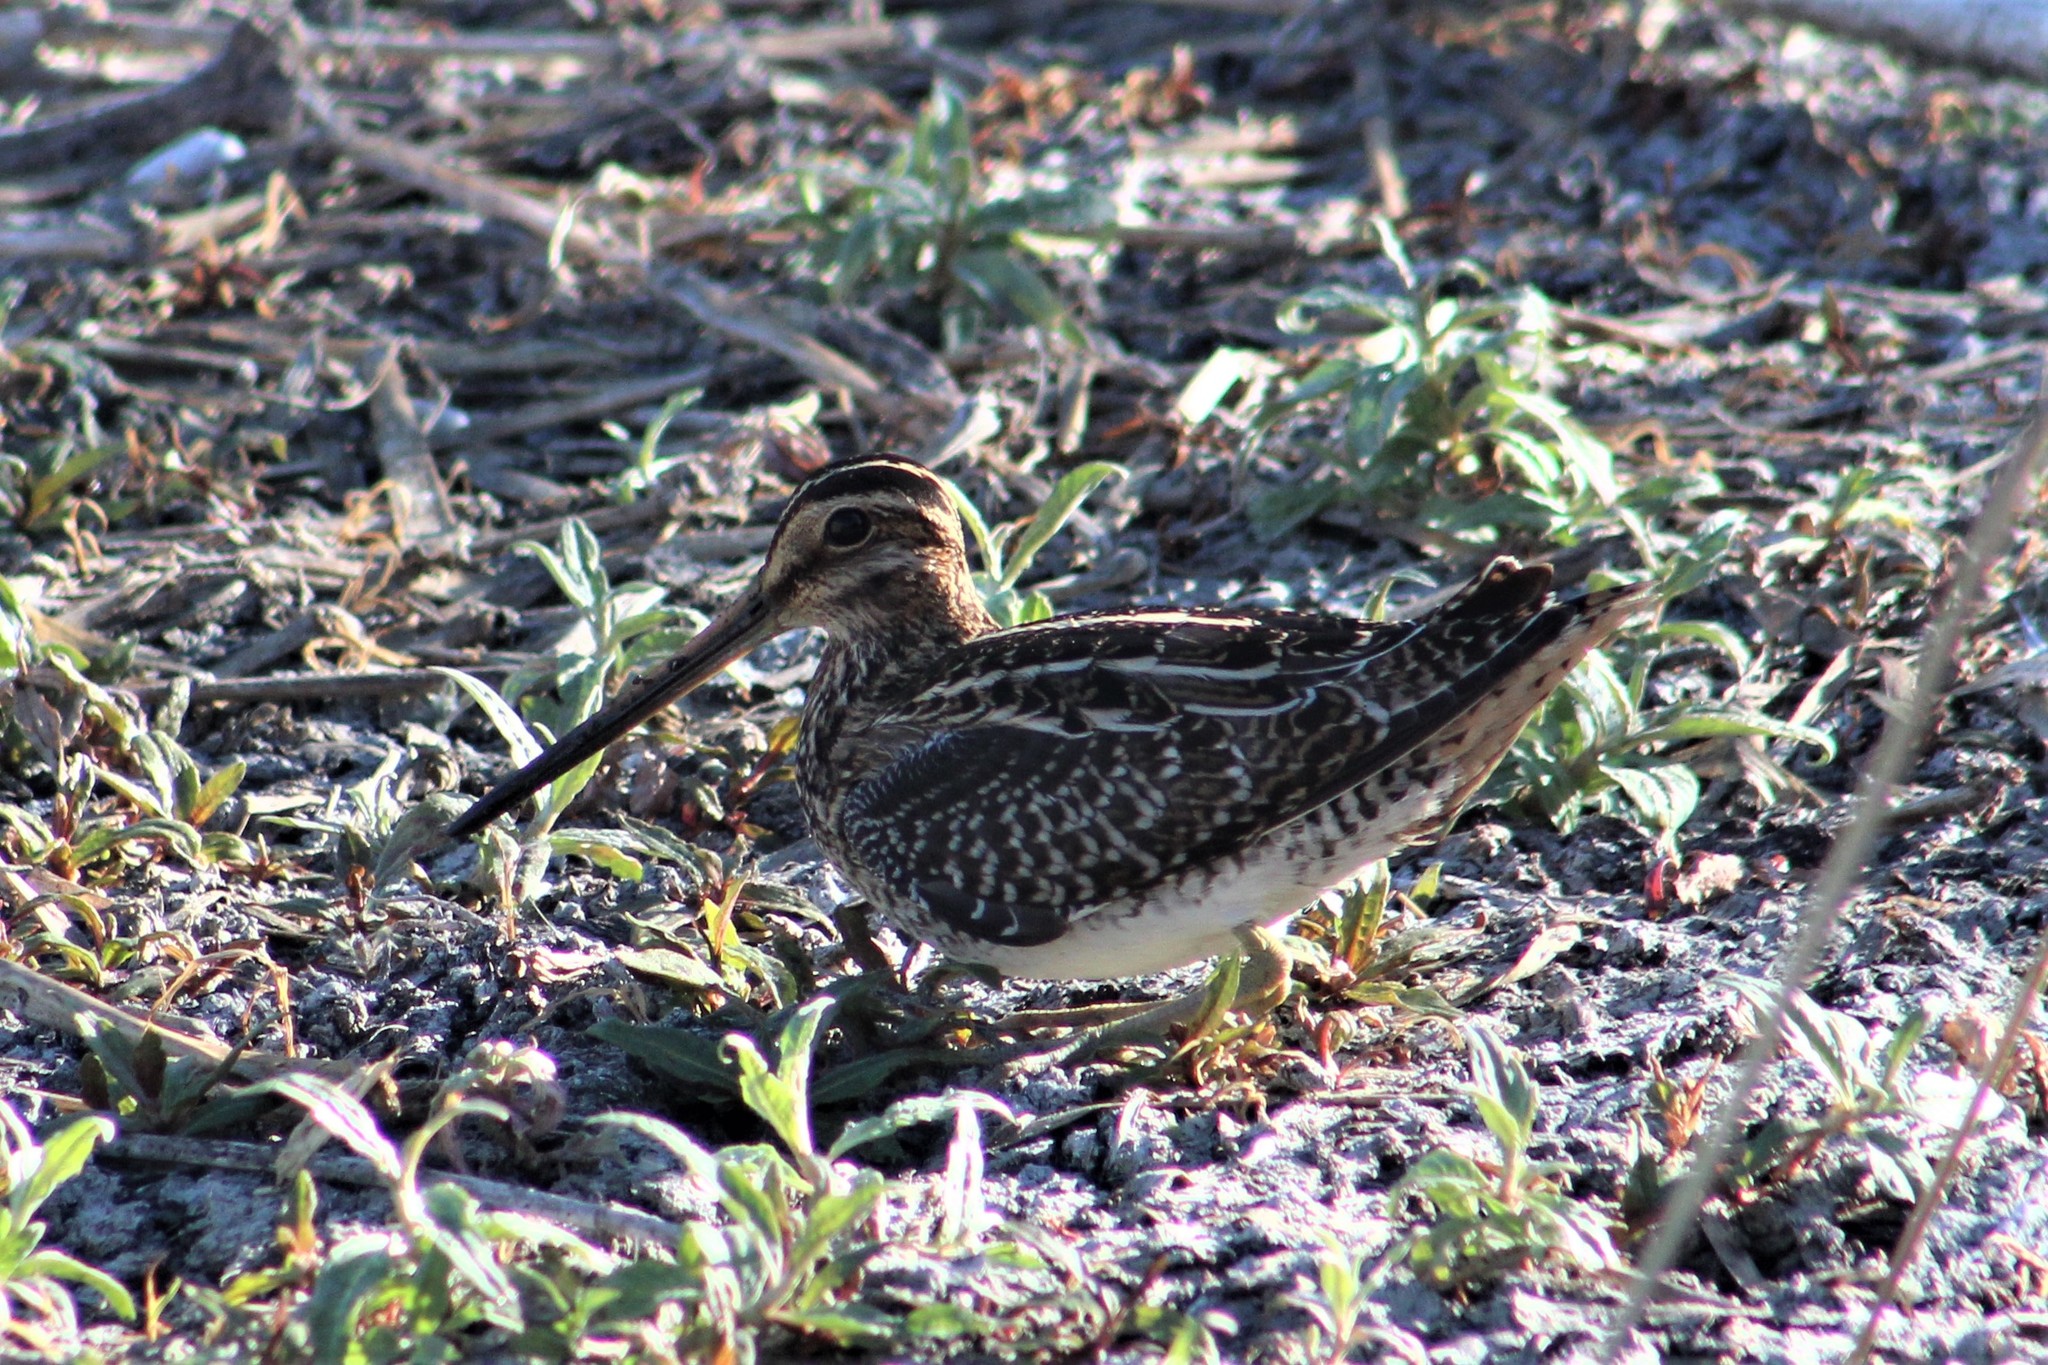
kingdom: Animalia
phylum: Chordata
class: Aves
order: Charadriiformes
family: Scolopacidae
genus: Gallinago
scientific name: Gallinago delicata
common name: Wilson's snipe
